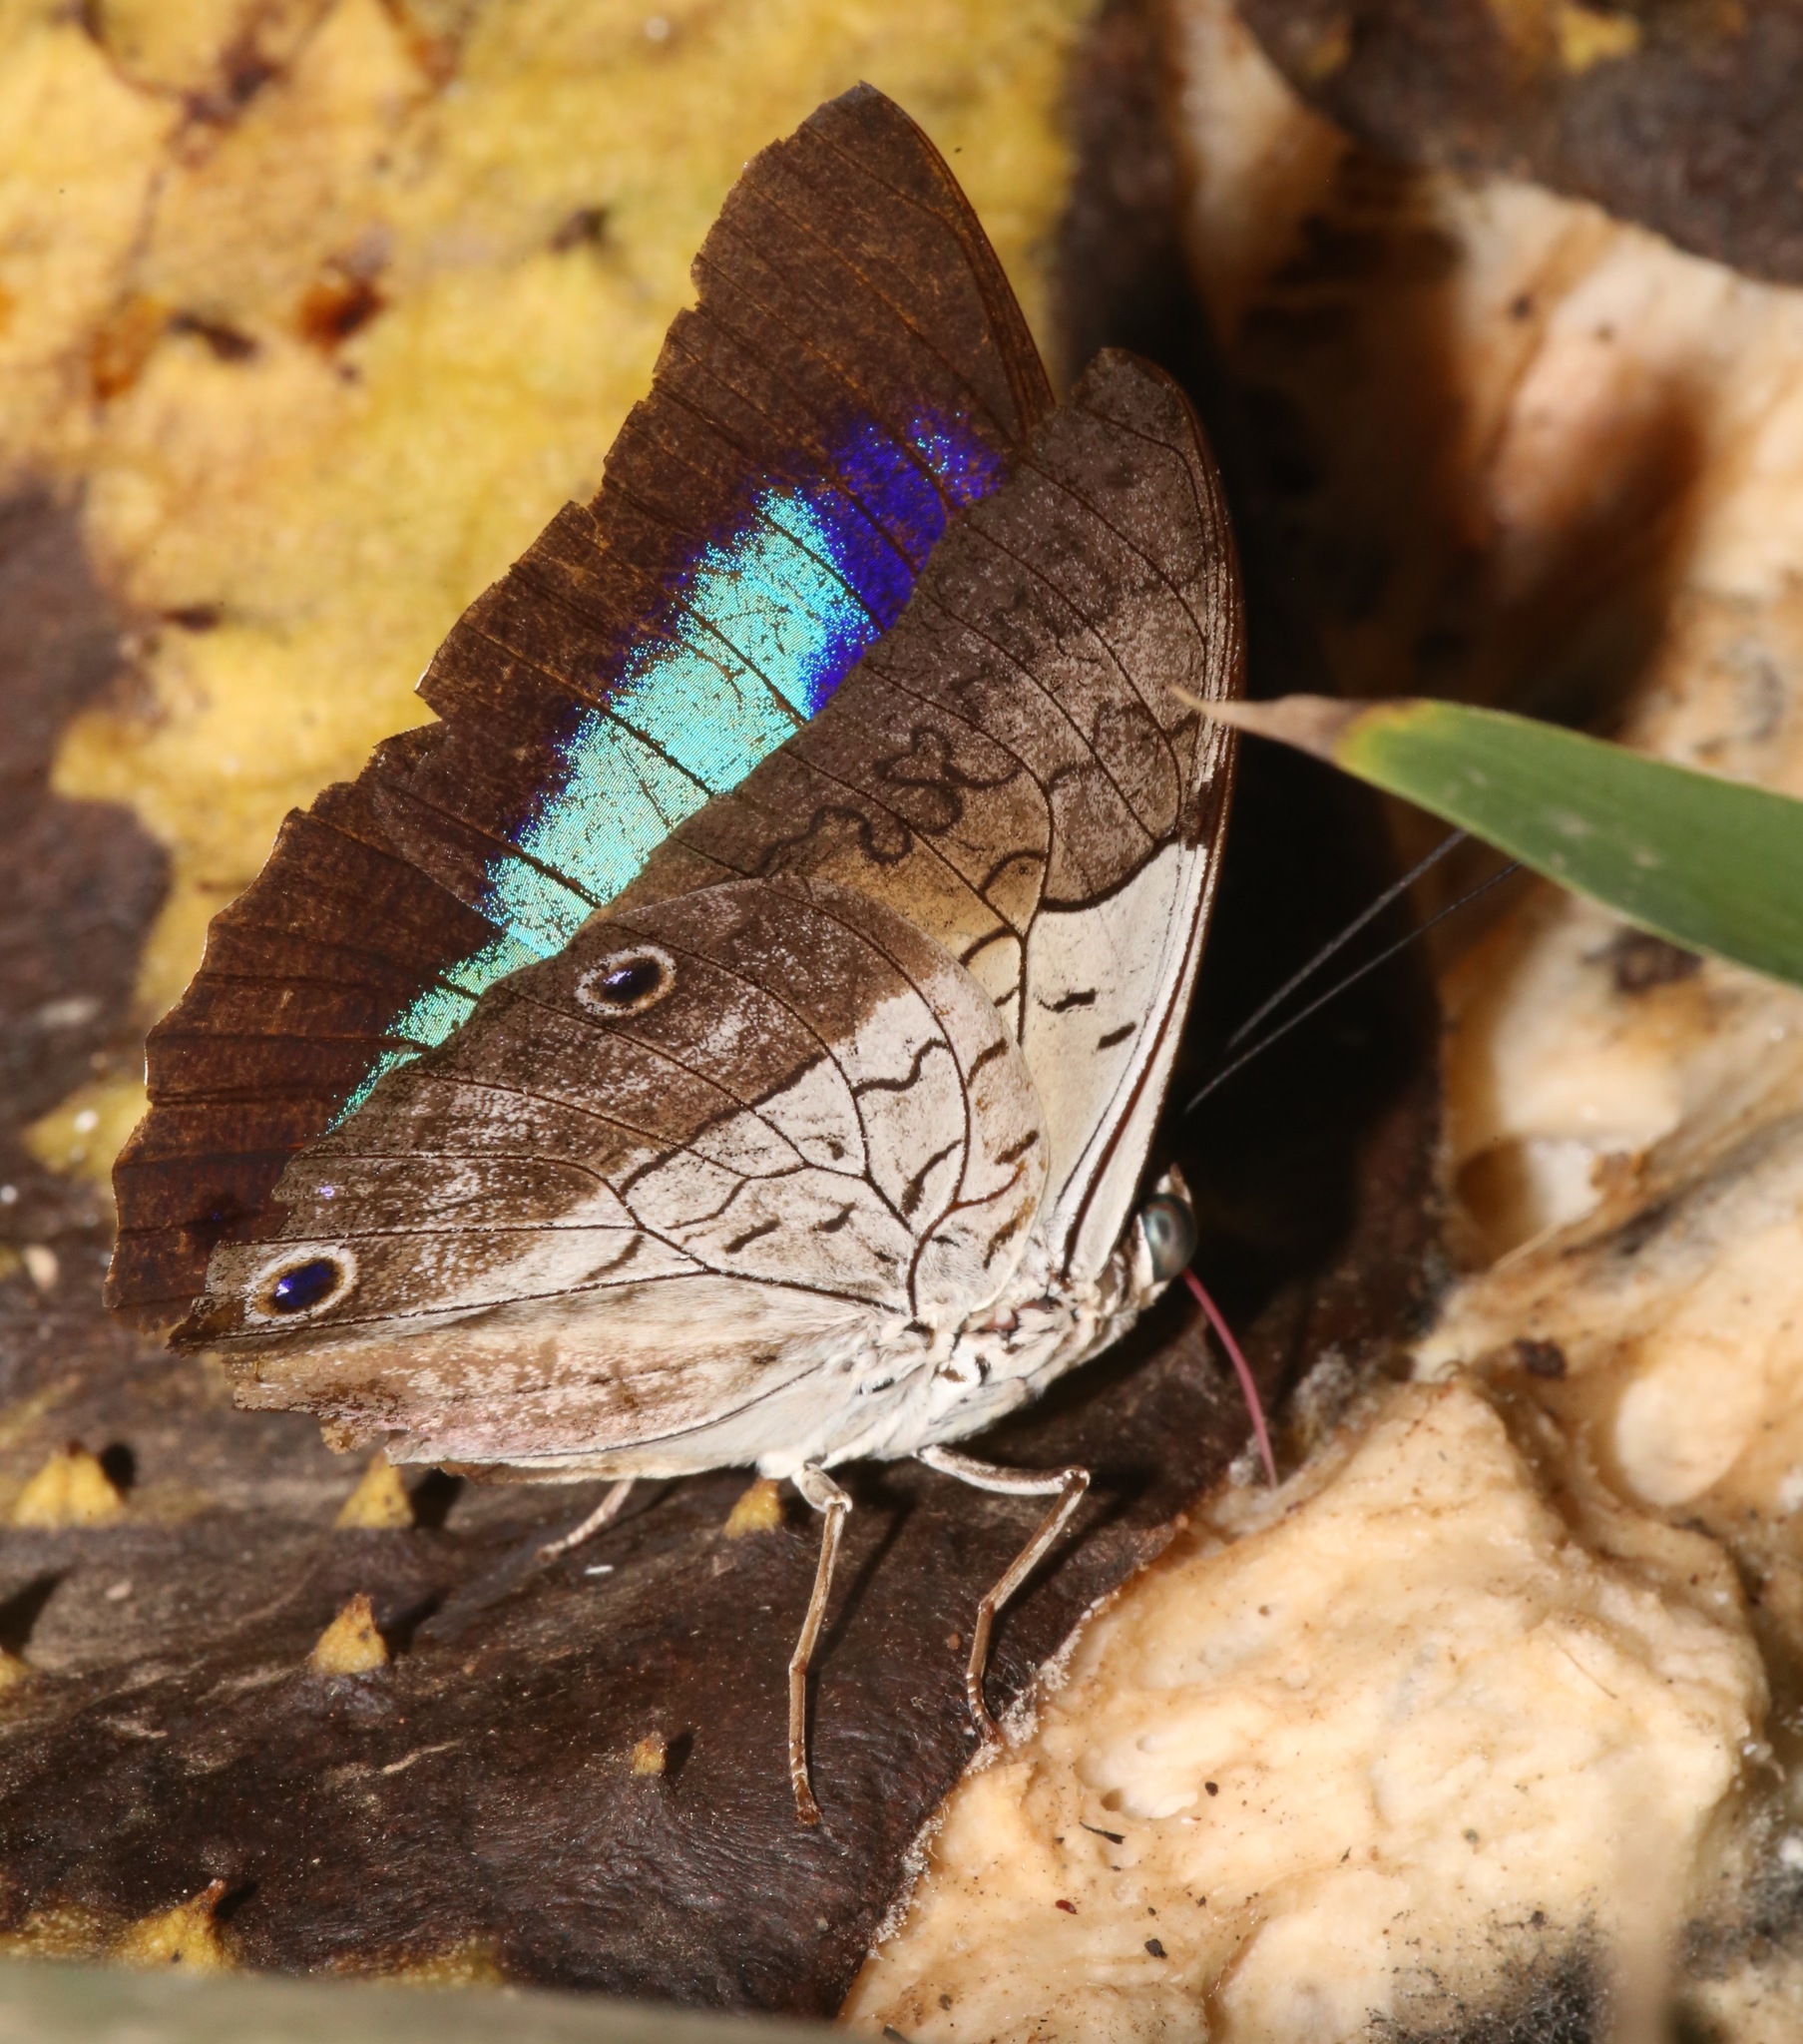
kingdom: Animalia
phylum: Arthropoda
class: Insecta
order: Lepidoptera
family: Nymphalidae
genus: Prepona
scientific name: Prepona laertes
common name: Butterfly
